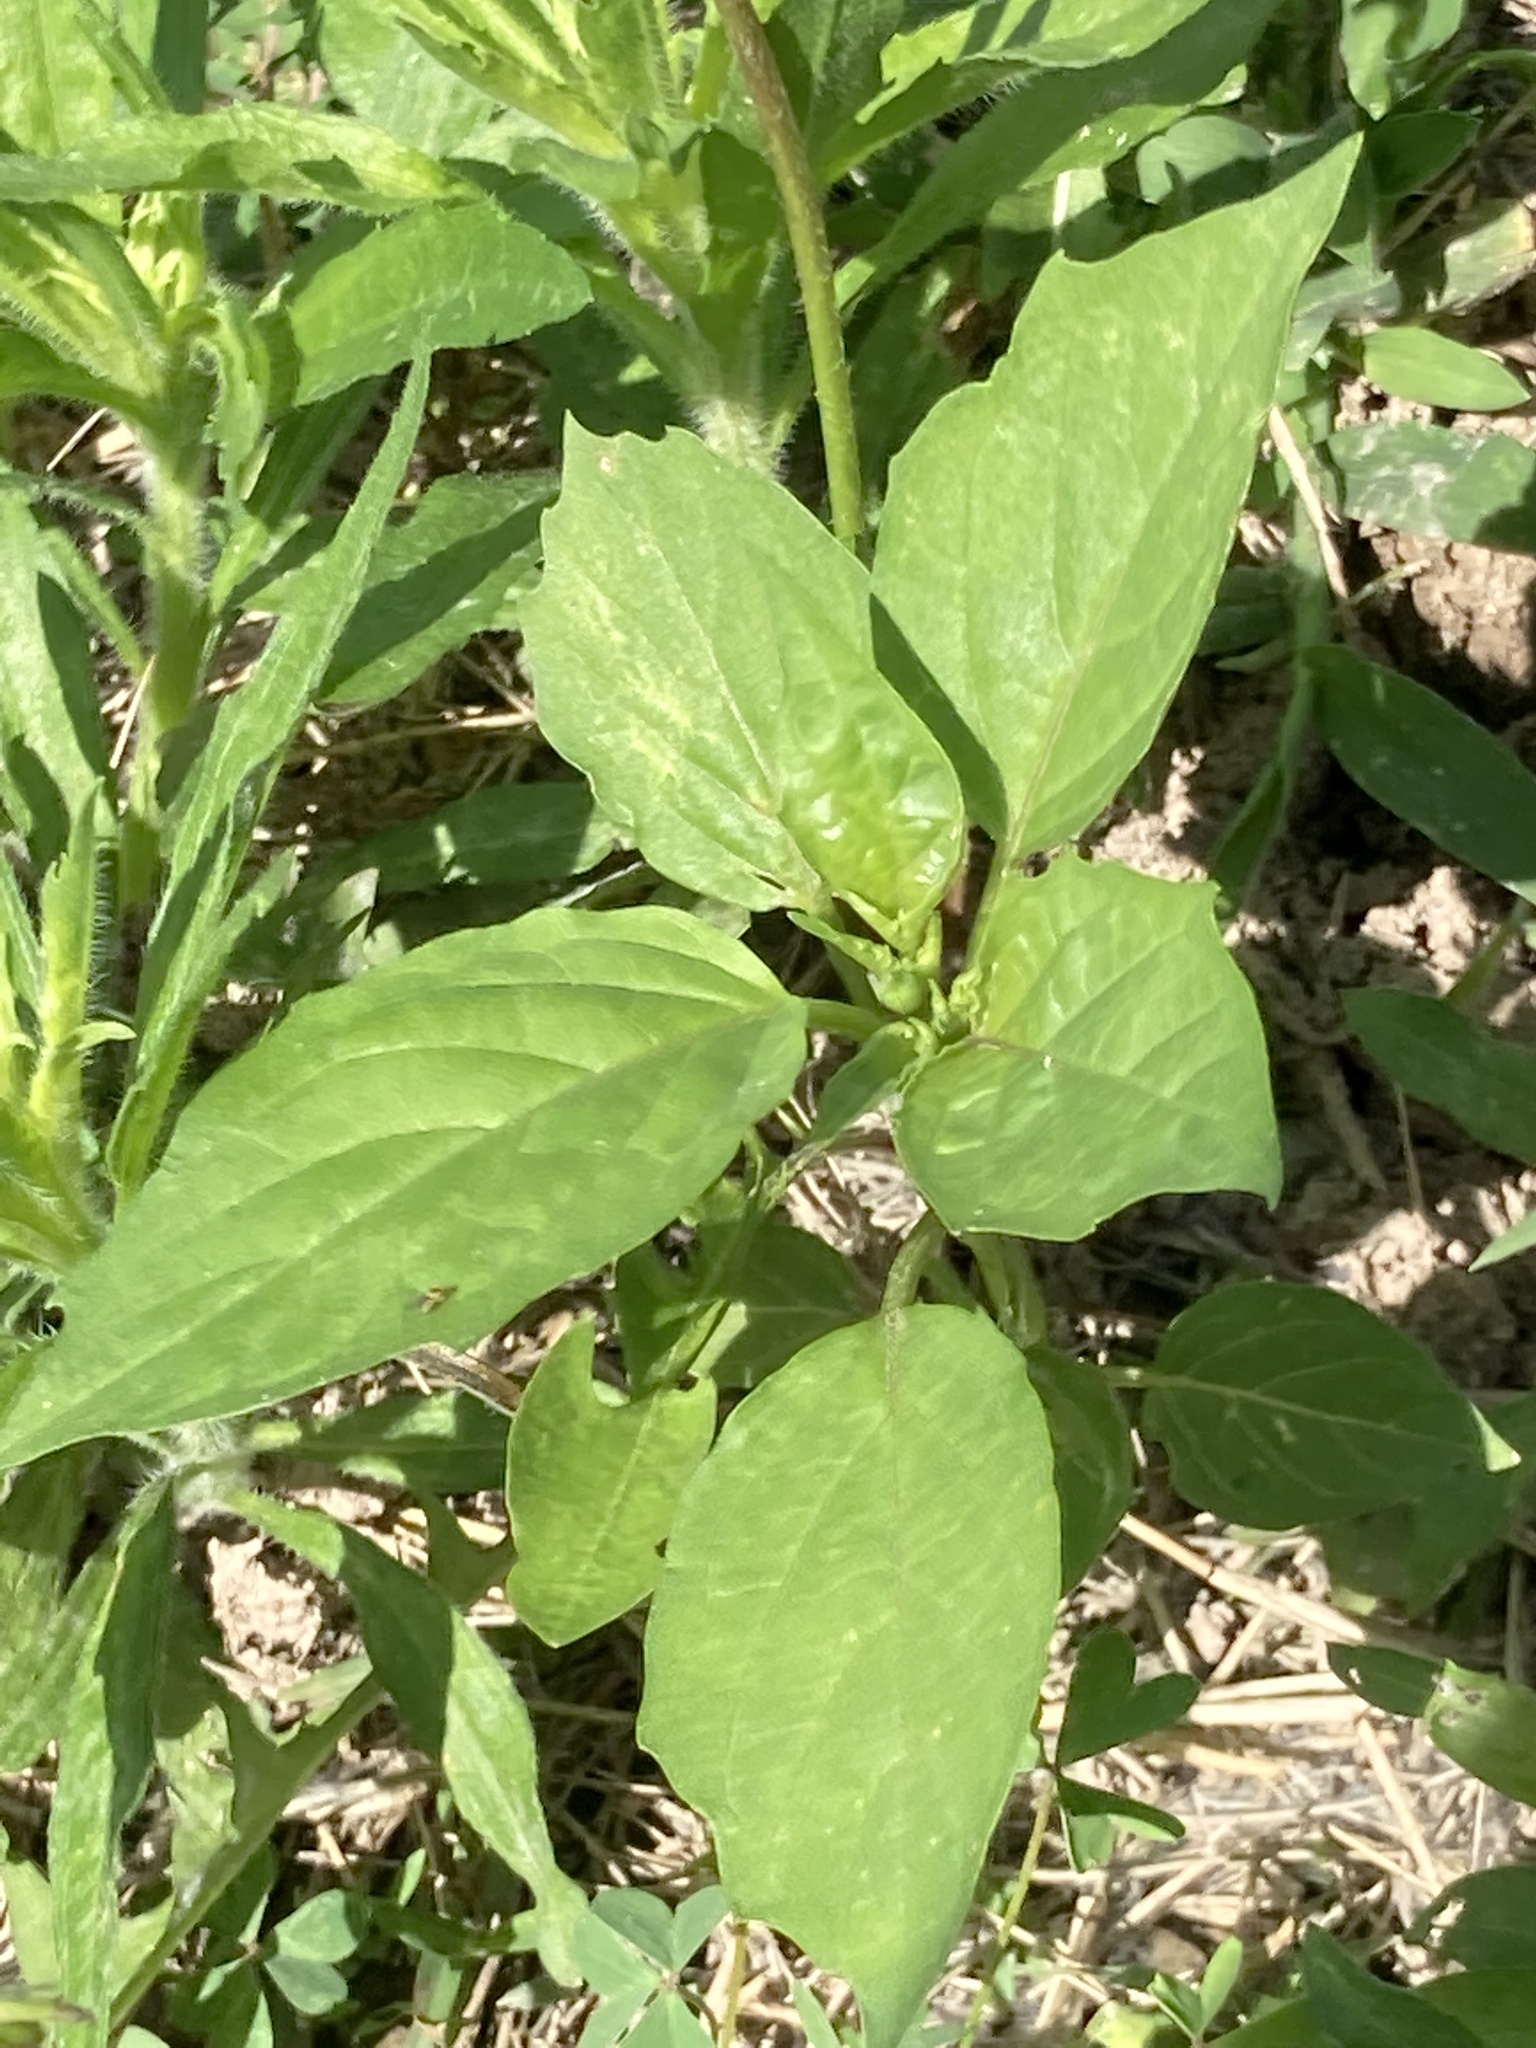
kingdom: Plantae
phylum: Tracheophyta
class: Magnoliopsida
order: Solanales
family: Solanaceae
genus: Physalis
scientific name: Physalis angulata
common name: Angular winter-cherry
